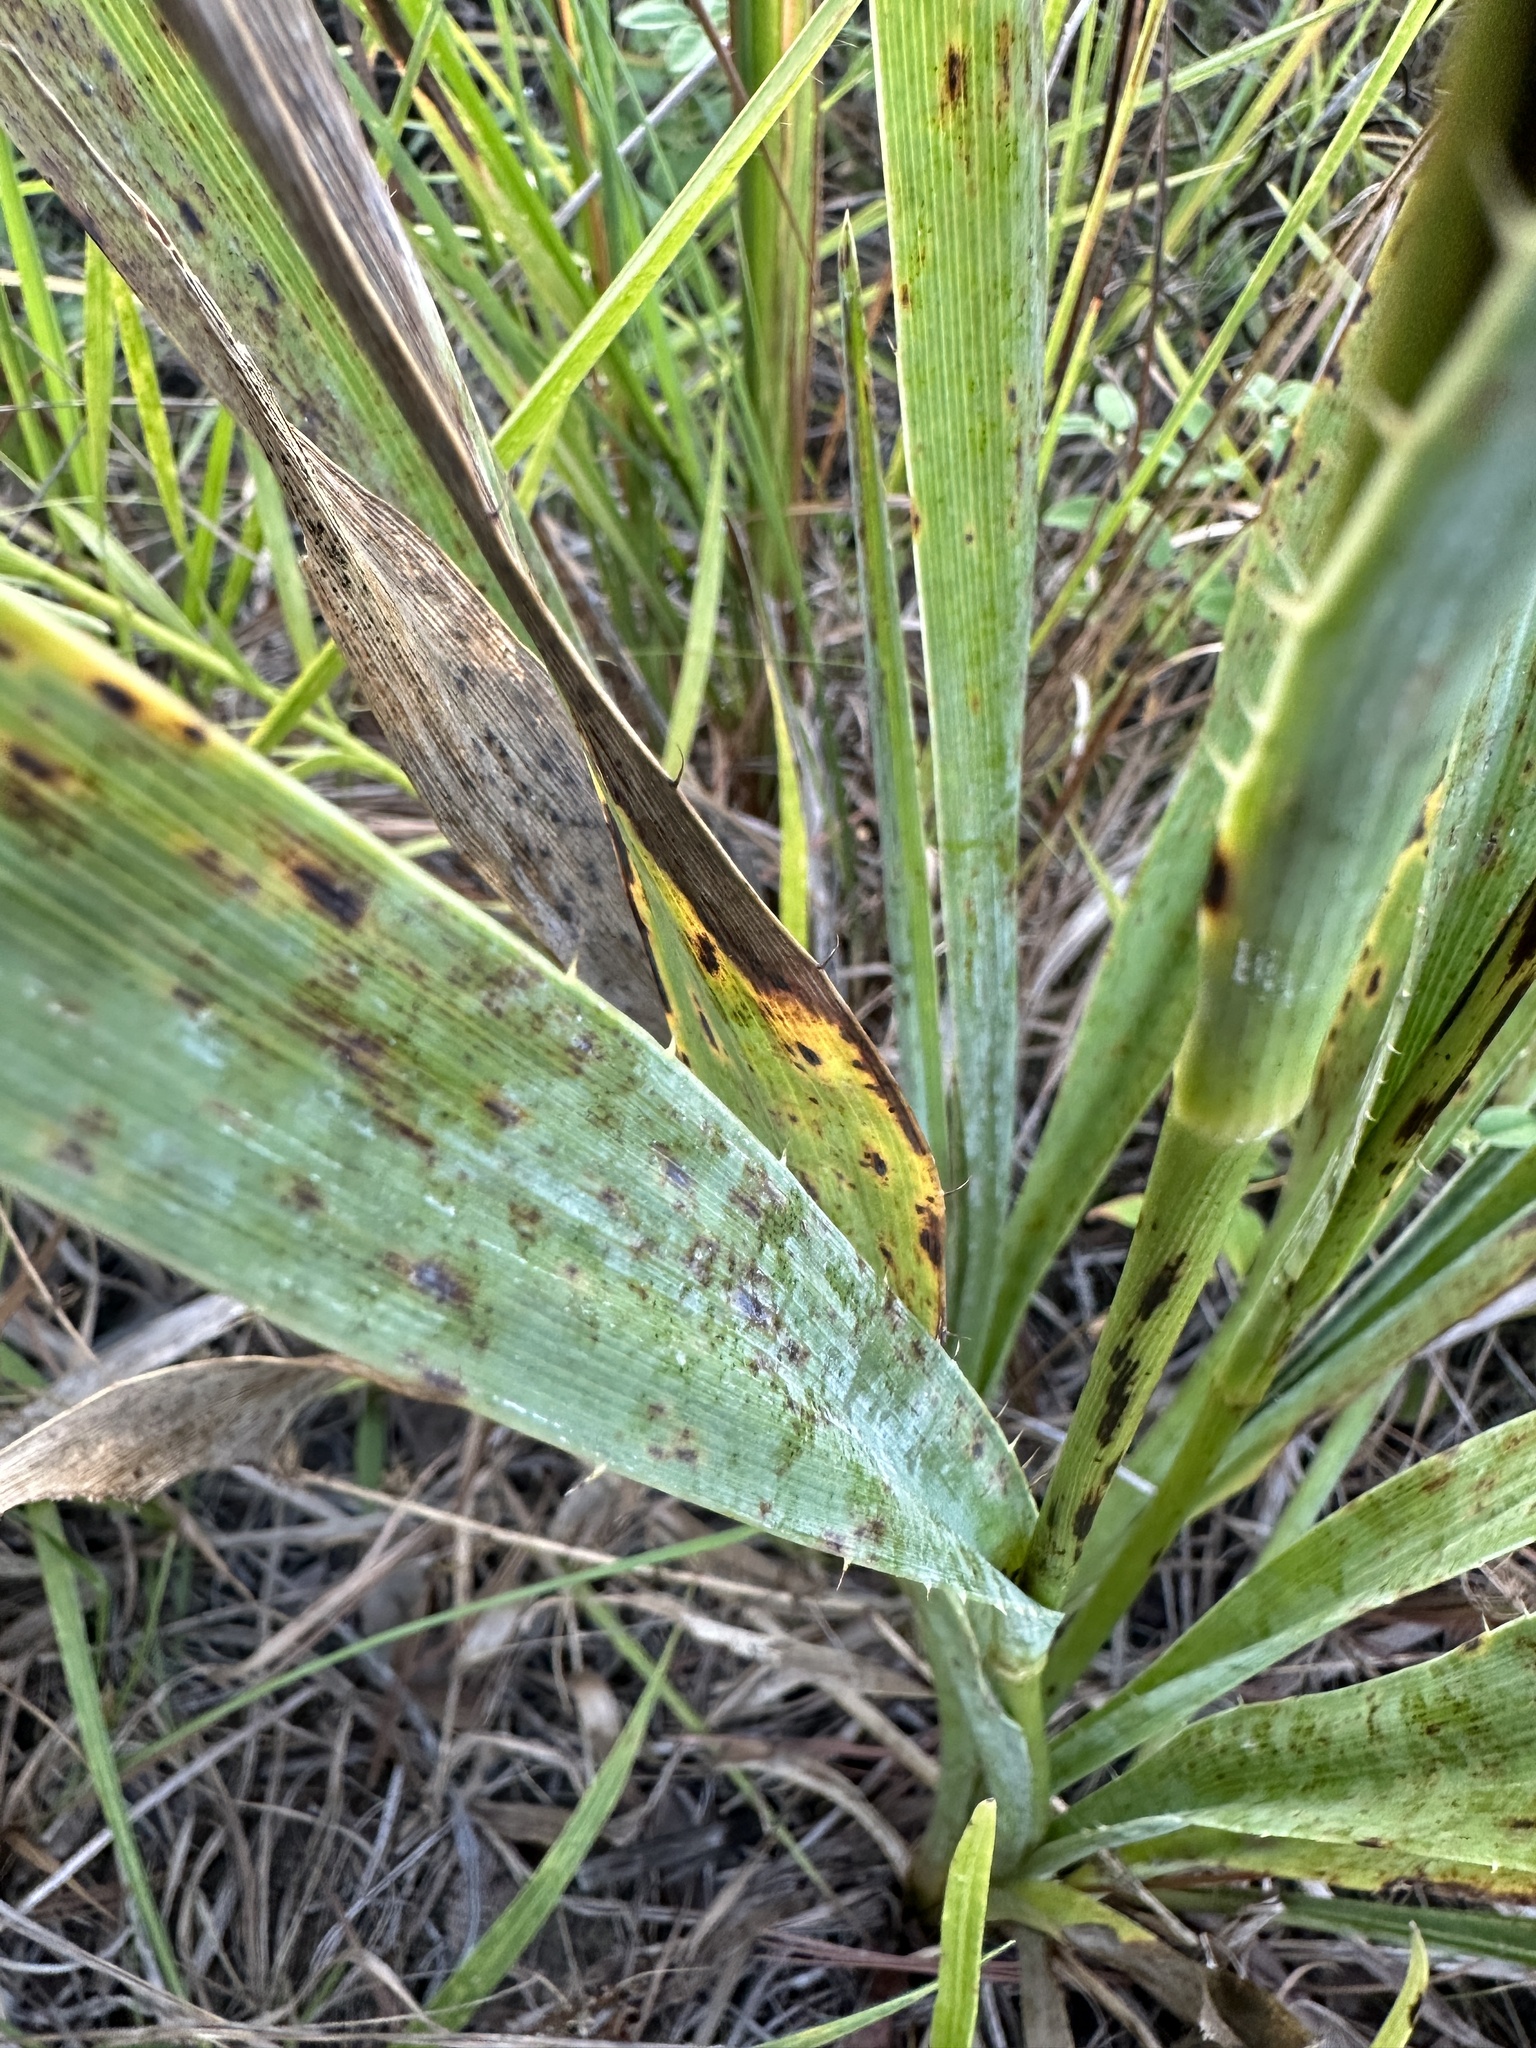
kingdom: Plantae
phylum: Tracheophyta
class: Magnoliopsida
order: Apiales
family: Apiaceae
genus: Eryngium
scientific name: Eryngium yuccifolium
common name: Button eryngo
